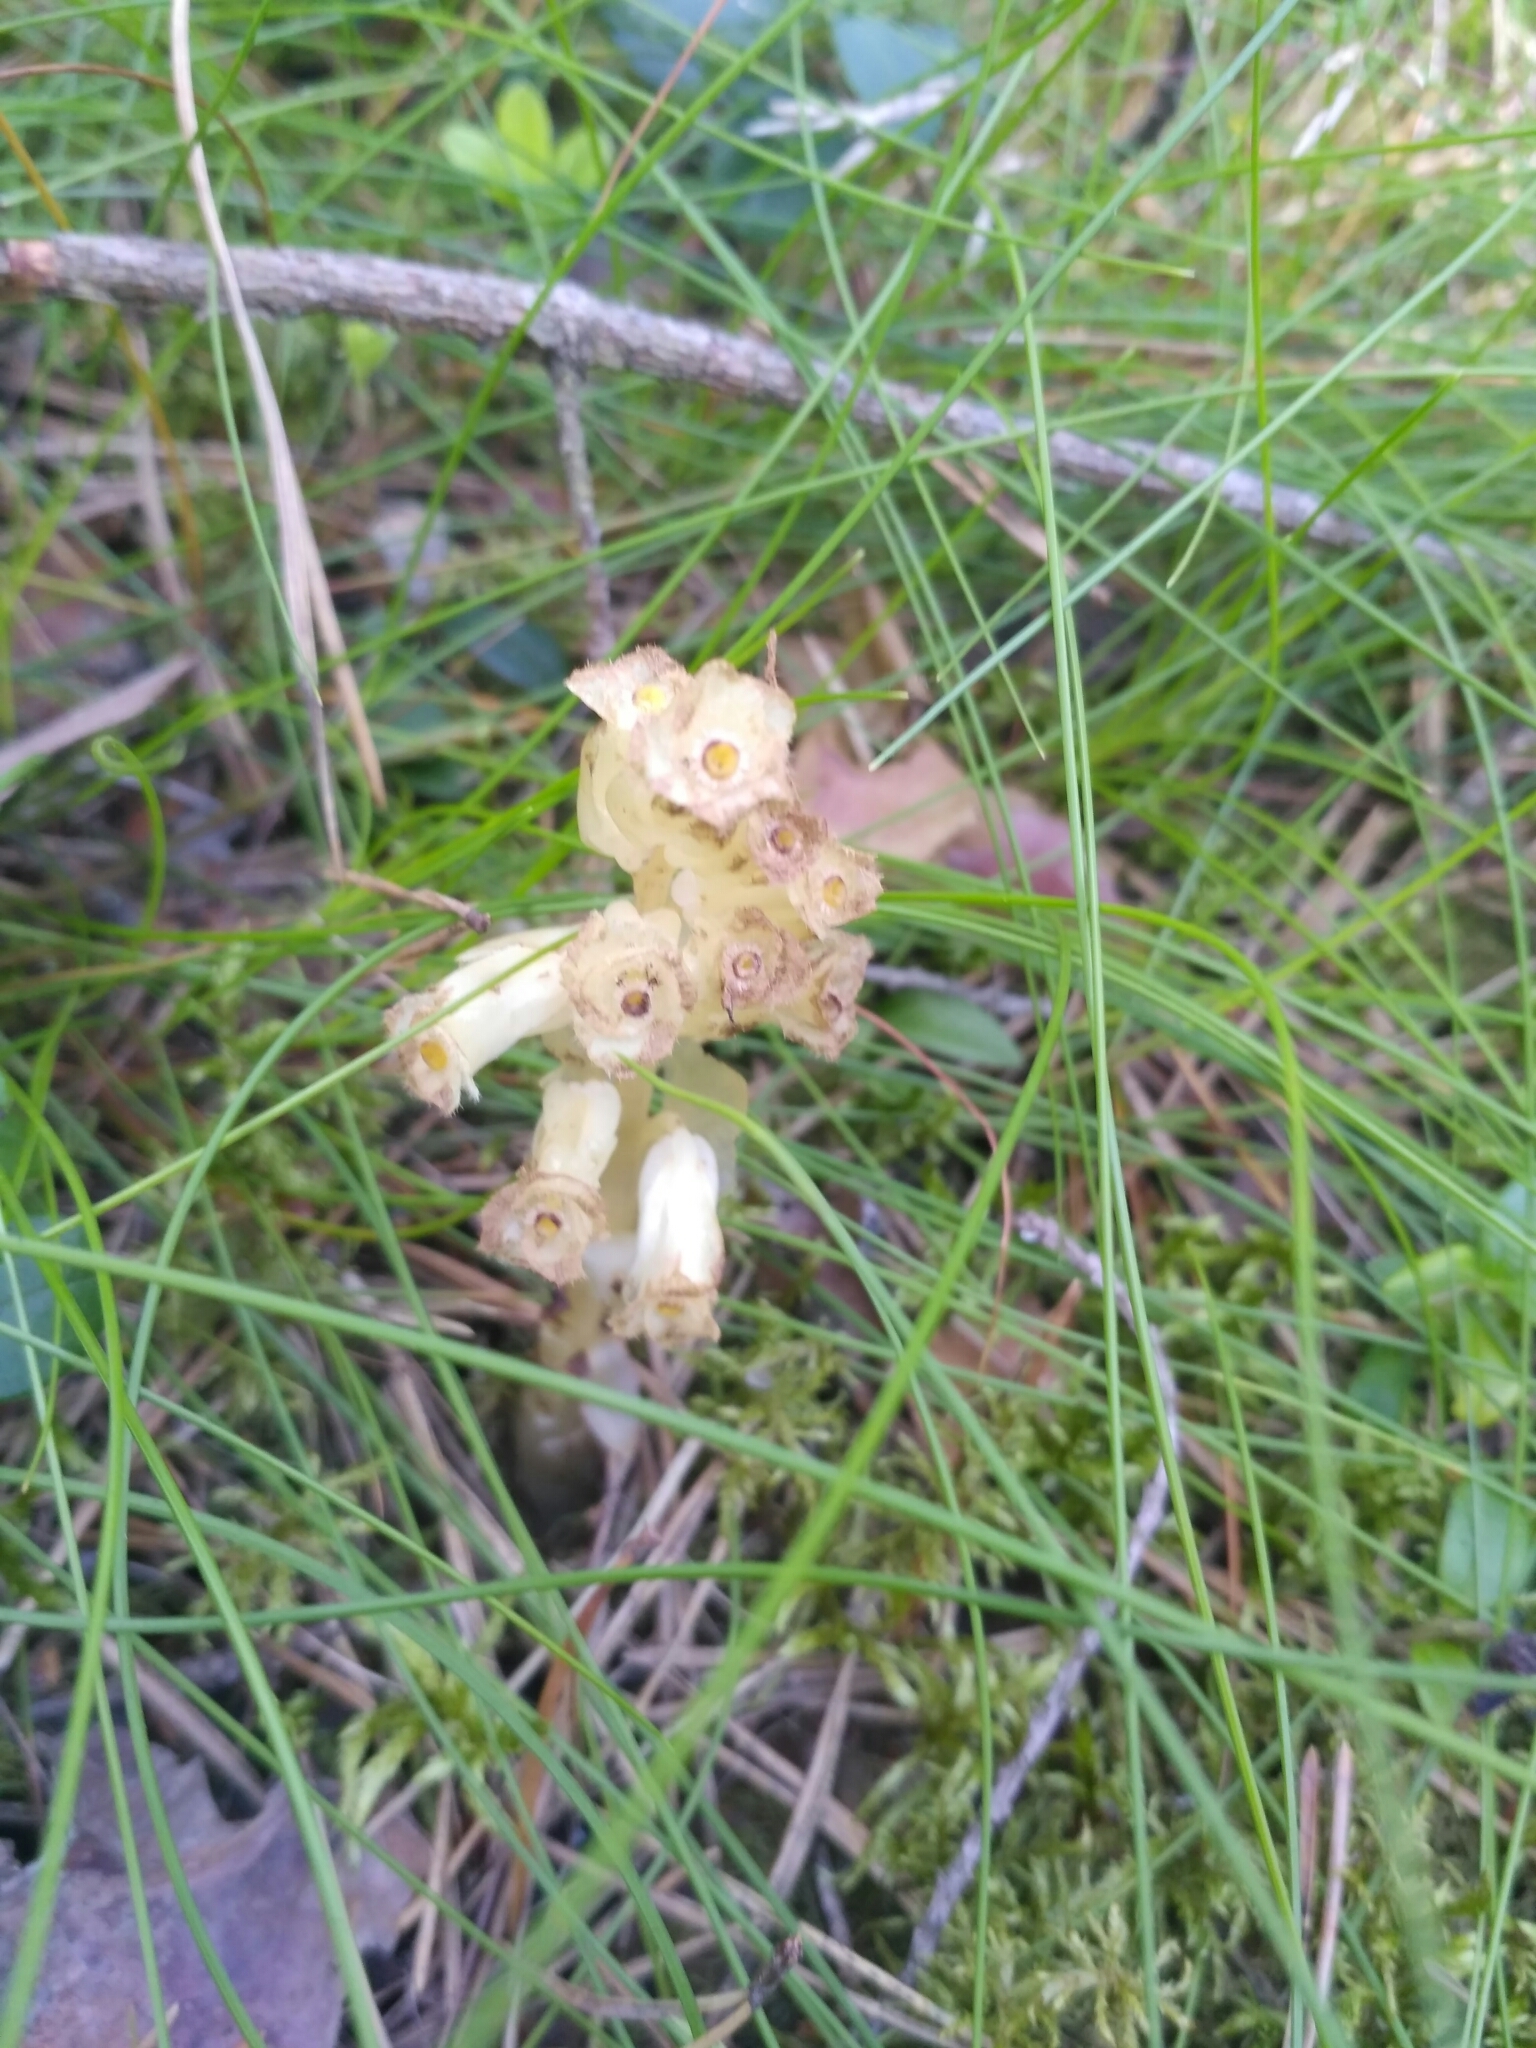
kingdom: Plantae
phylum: Tracheophyta
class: Magnoliopsida
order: Ericales
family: Ericaceae
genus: Hypopitys
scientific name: Hypopitys monotropa
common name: Yellow bird's-nest
